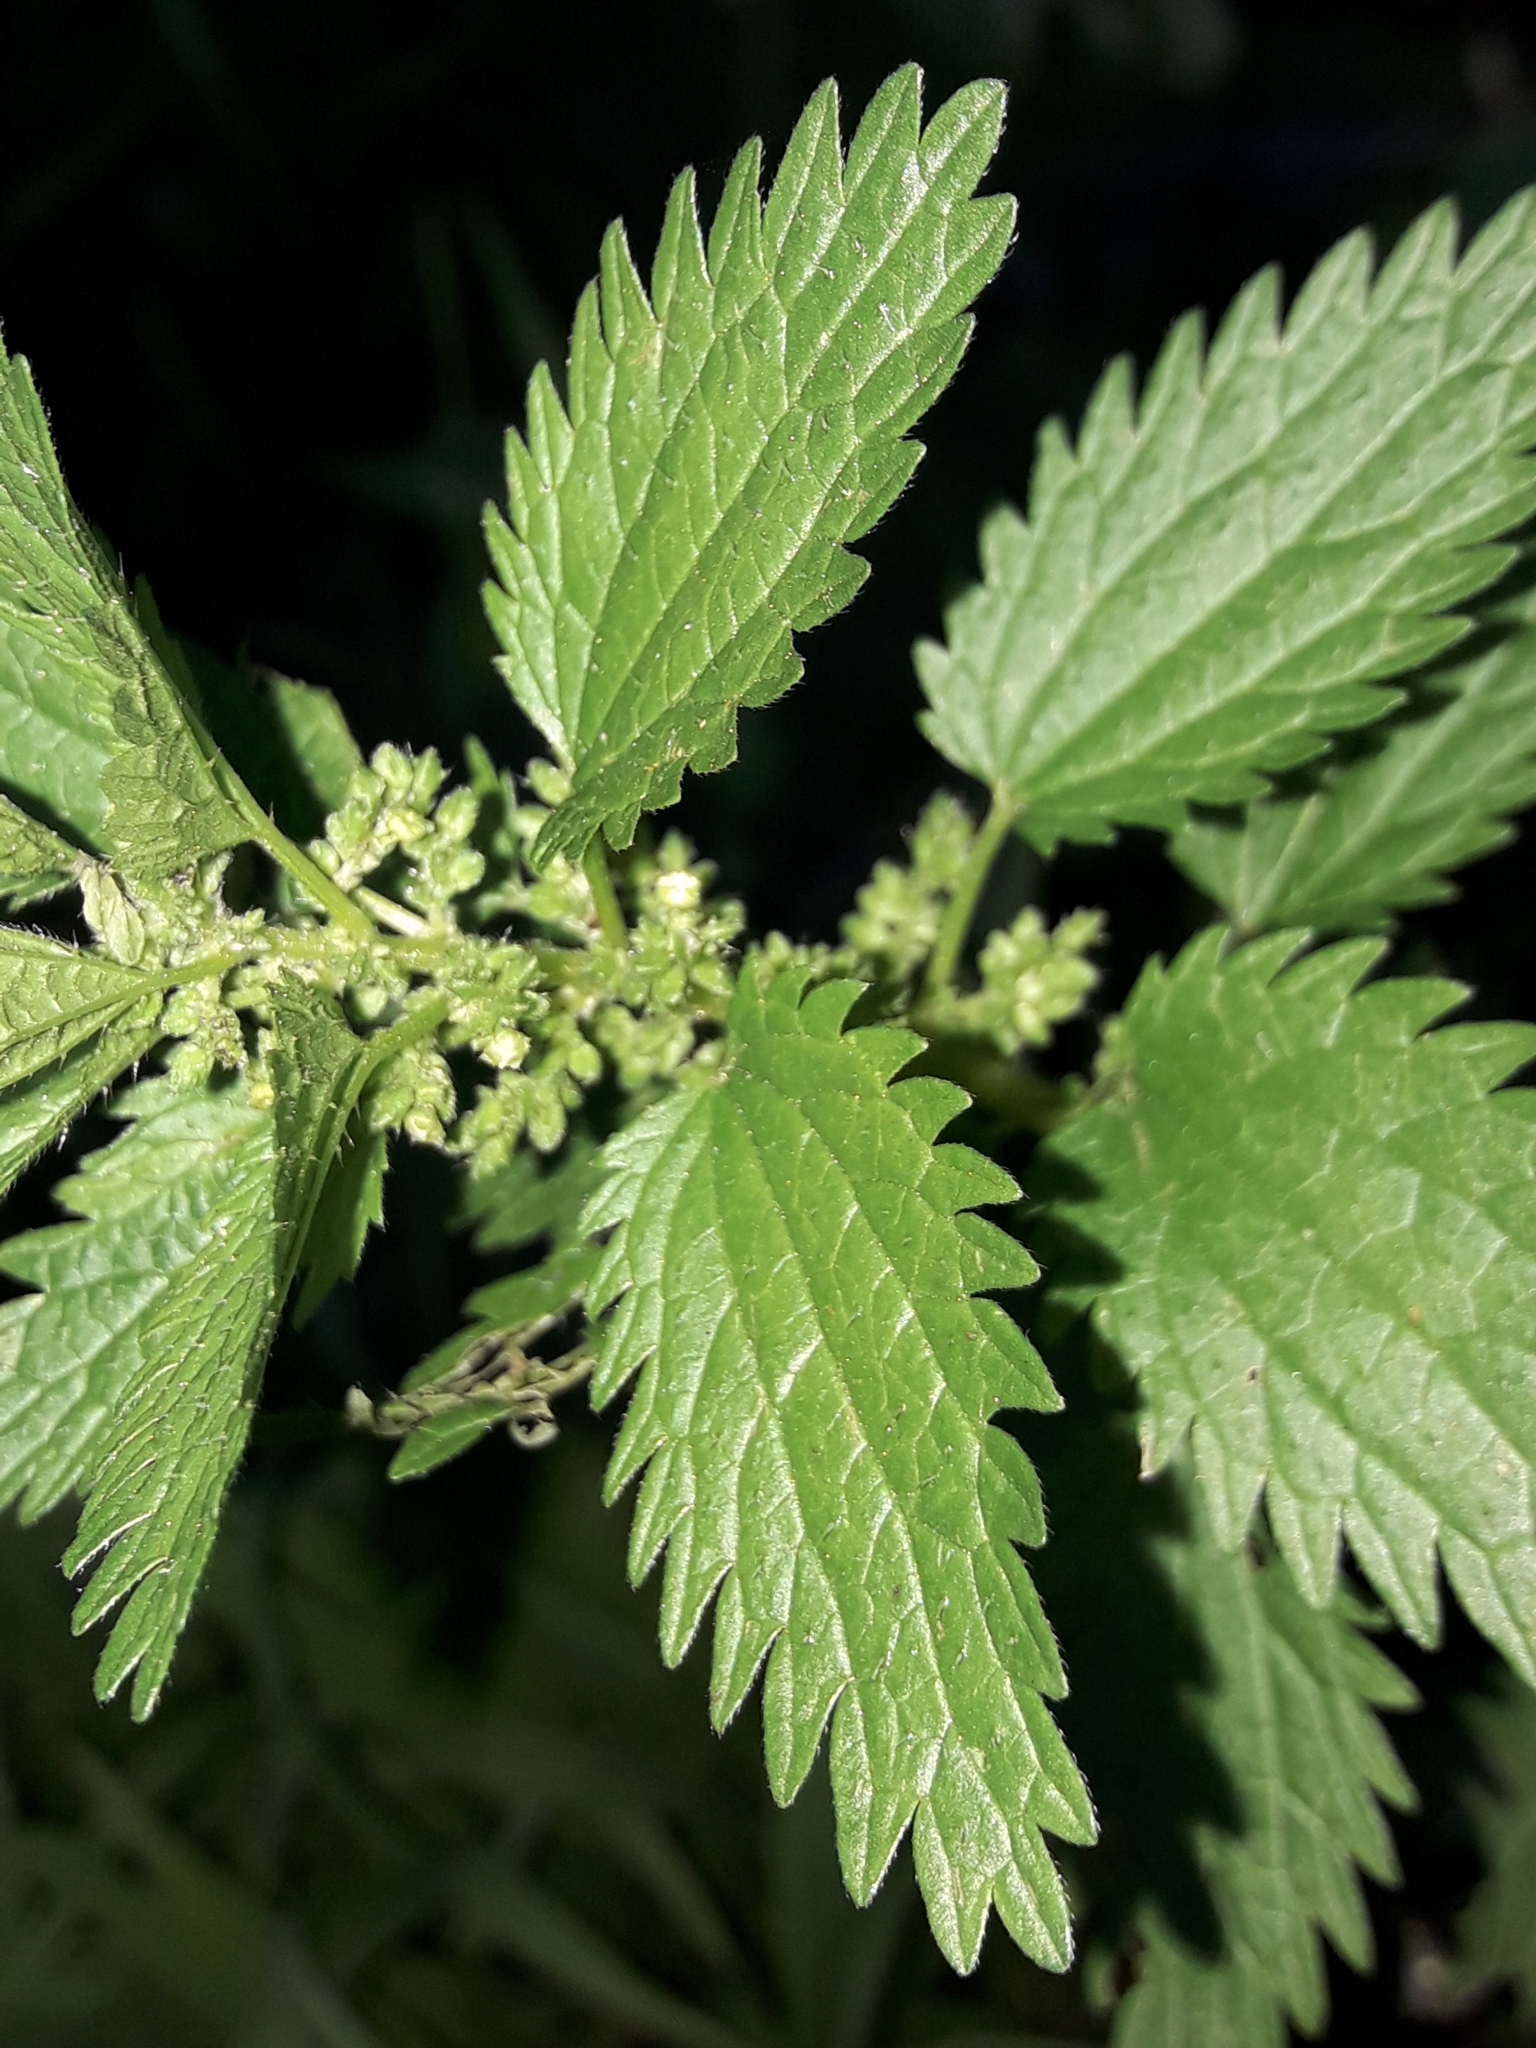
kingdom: Plantae
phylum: Tracheophyta
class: Magnoliopsida
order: Rosales
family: Urticaceae
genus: Urtica
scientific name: Urtica urens
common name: Dwarf nettle
